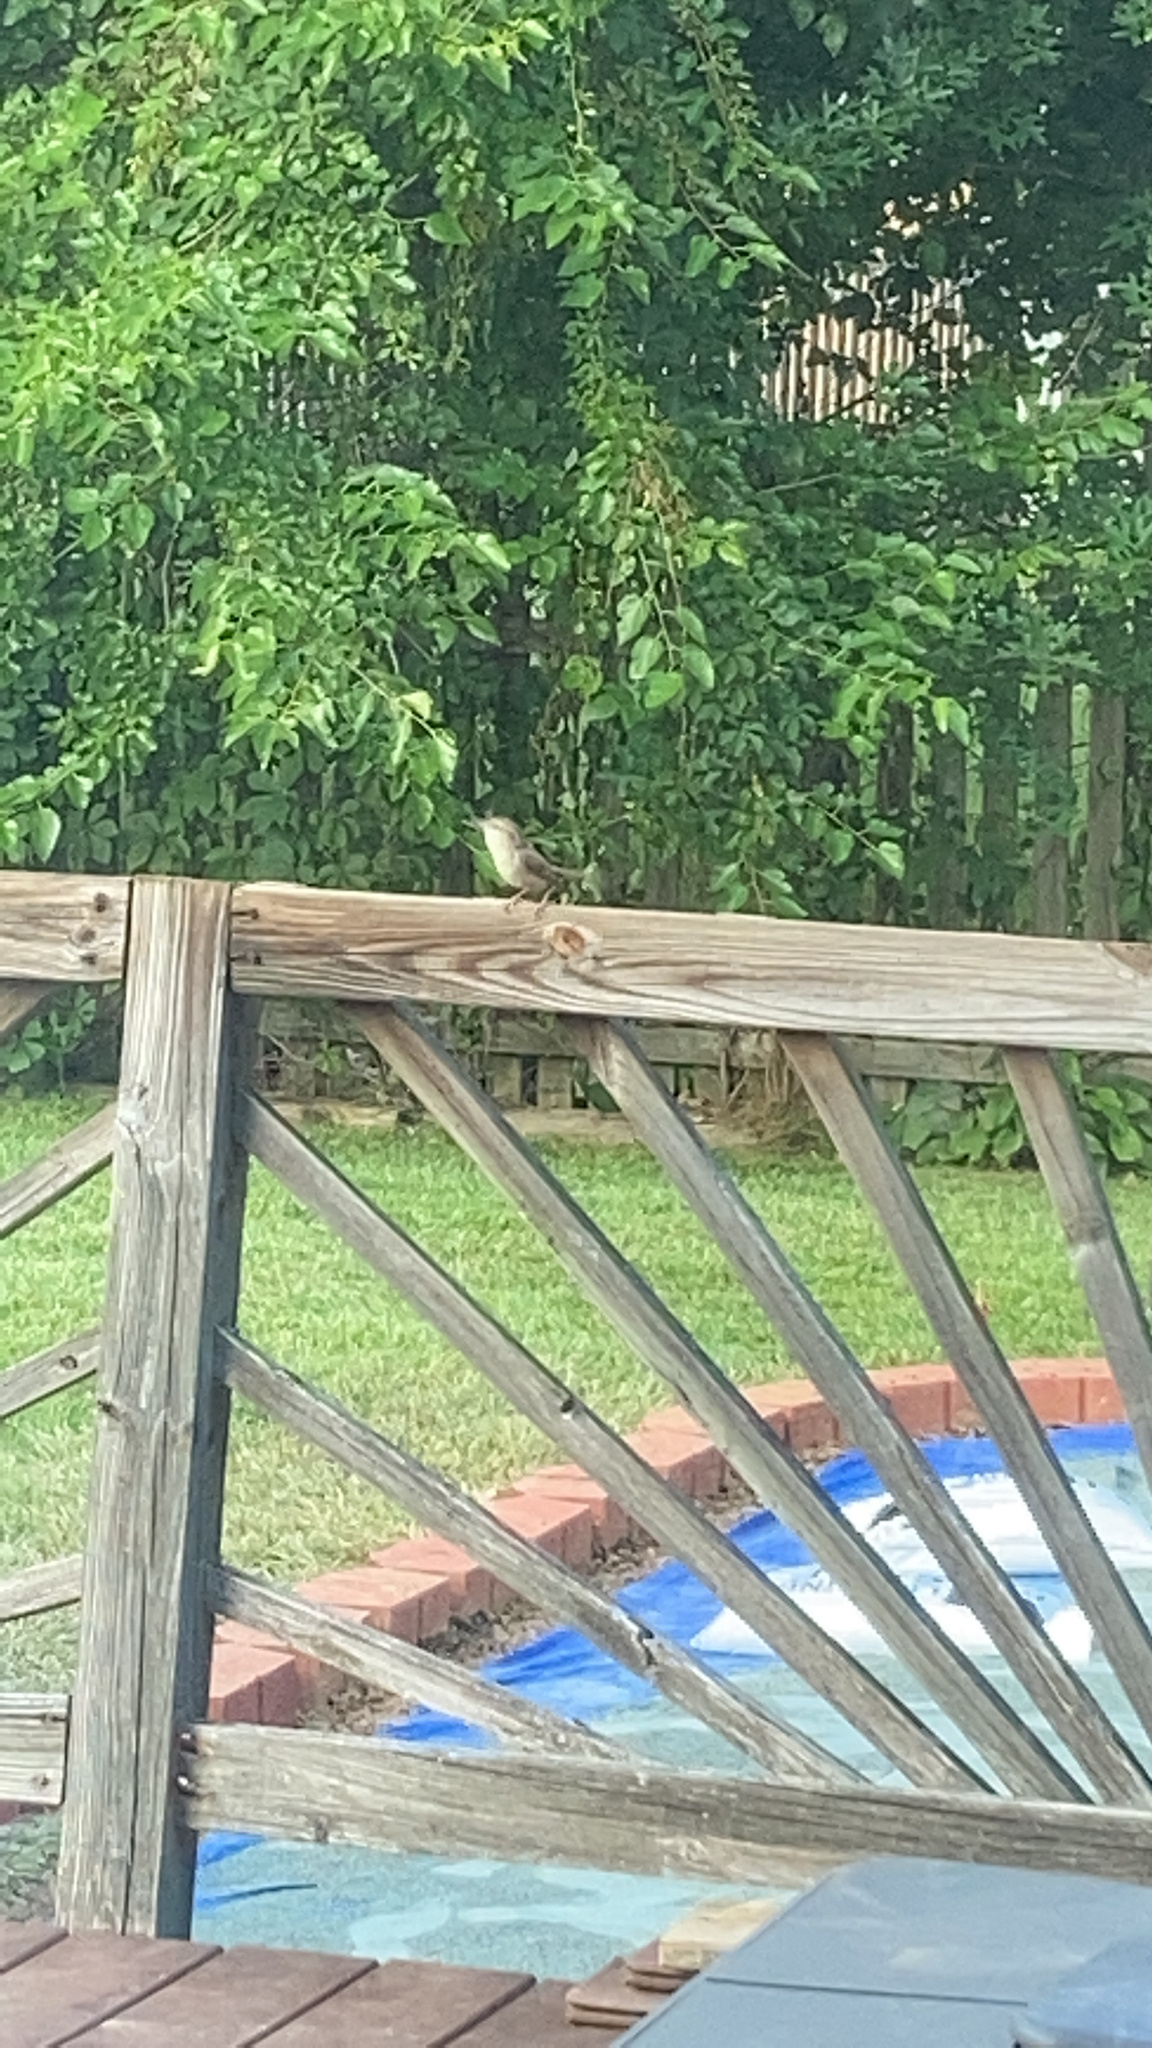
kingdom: Animalia
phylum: Chordata
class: Aves
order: Passeriformes
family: Troglodytidae
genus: Thryothorus
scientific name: Thryothorus ludovicianus
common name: Carolina wren
